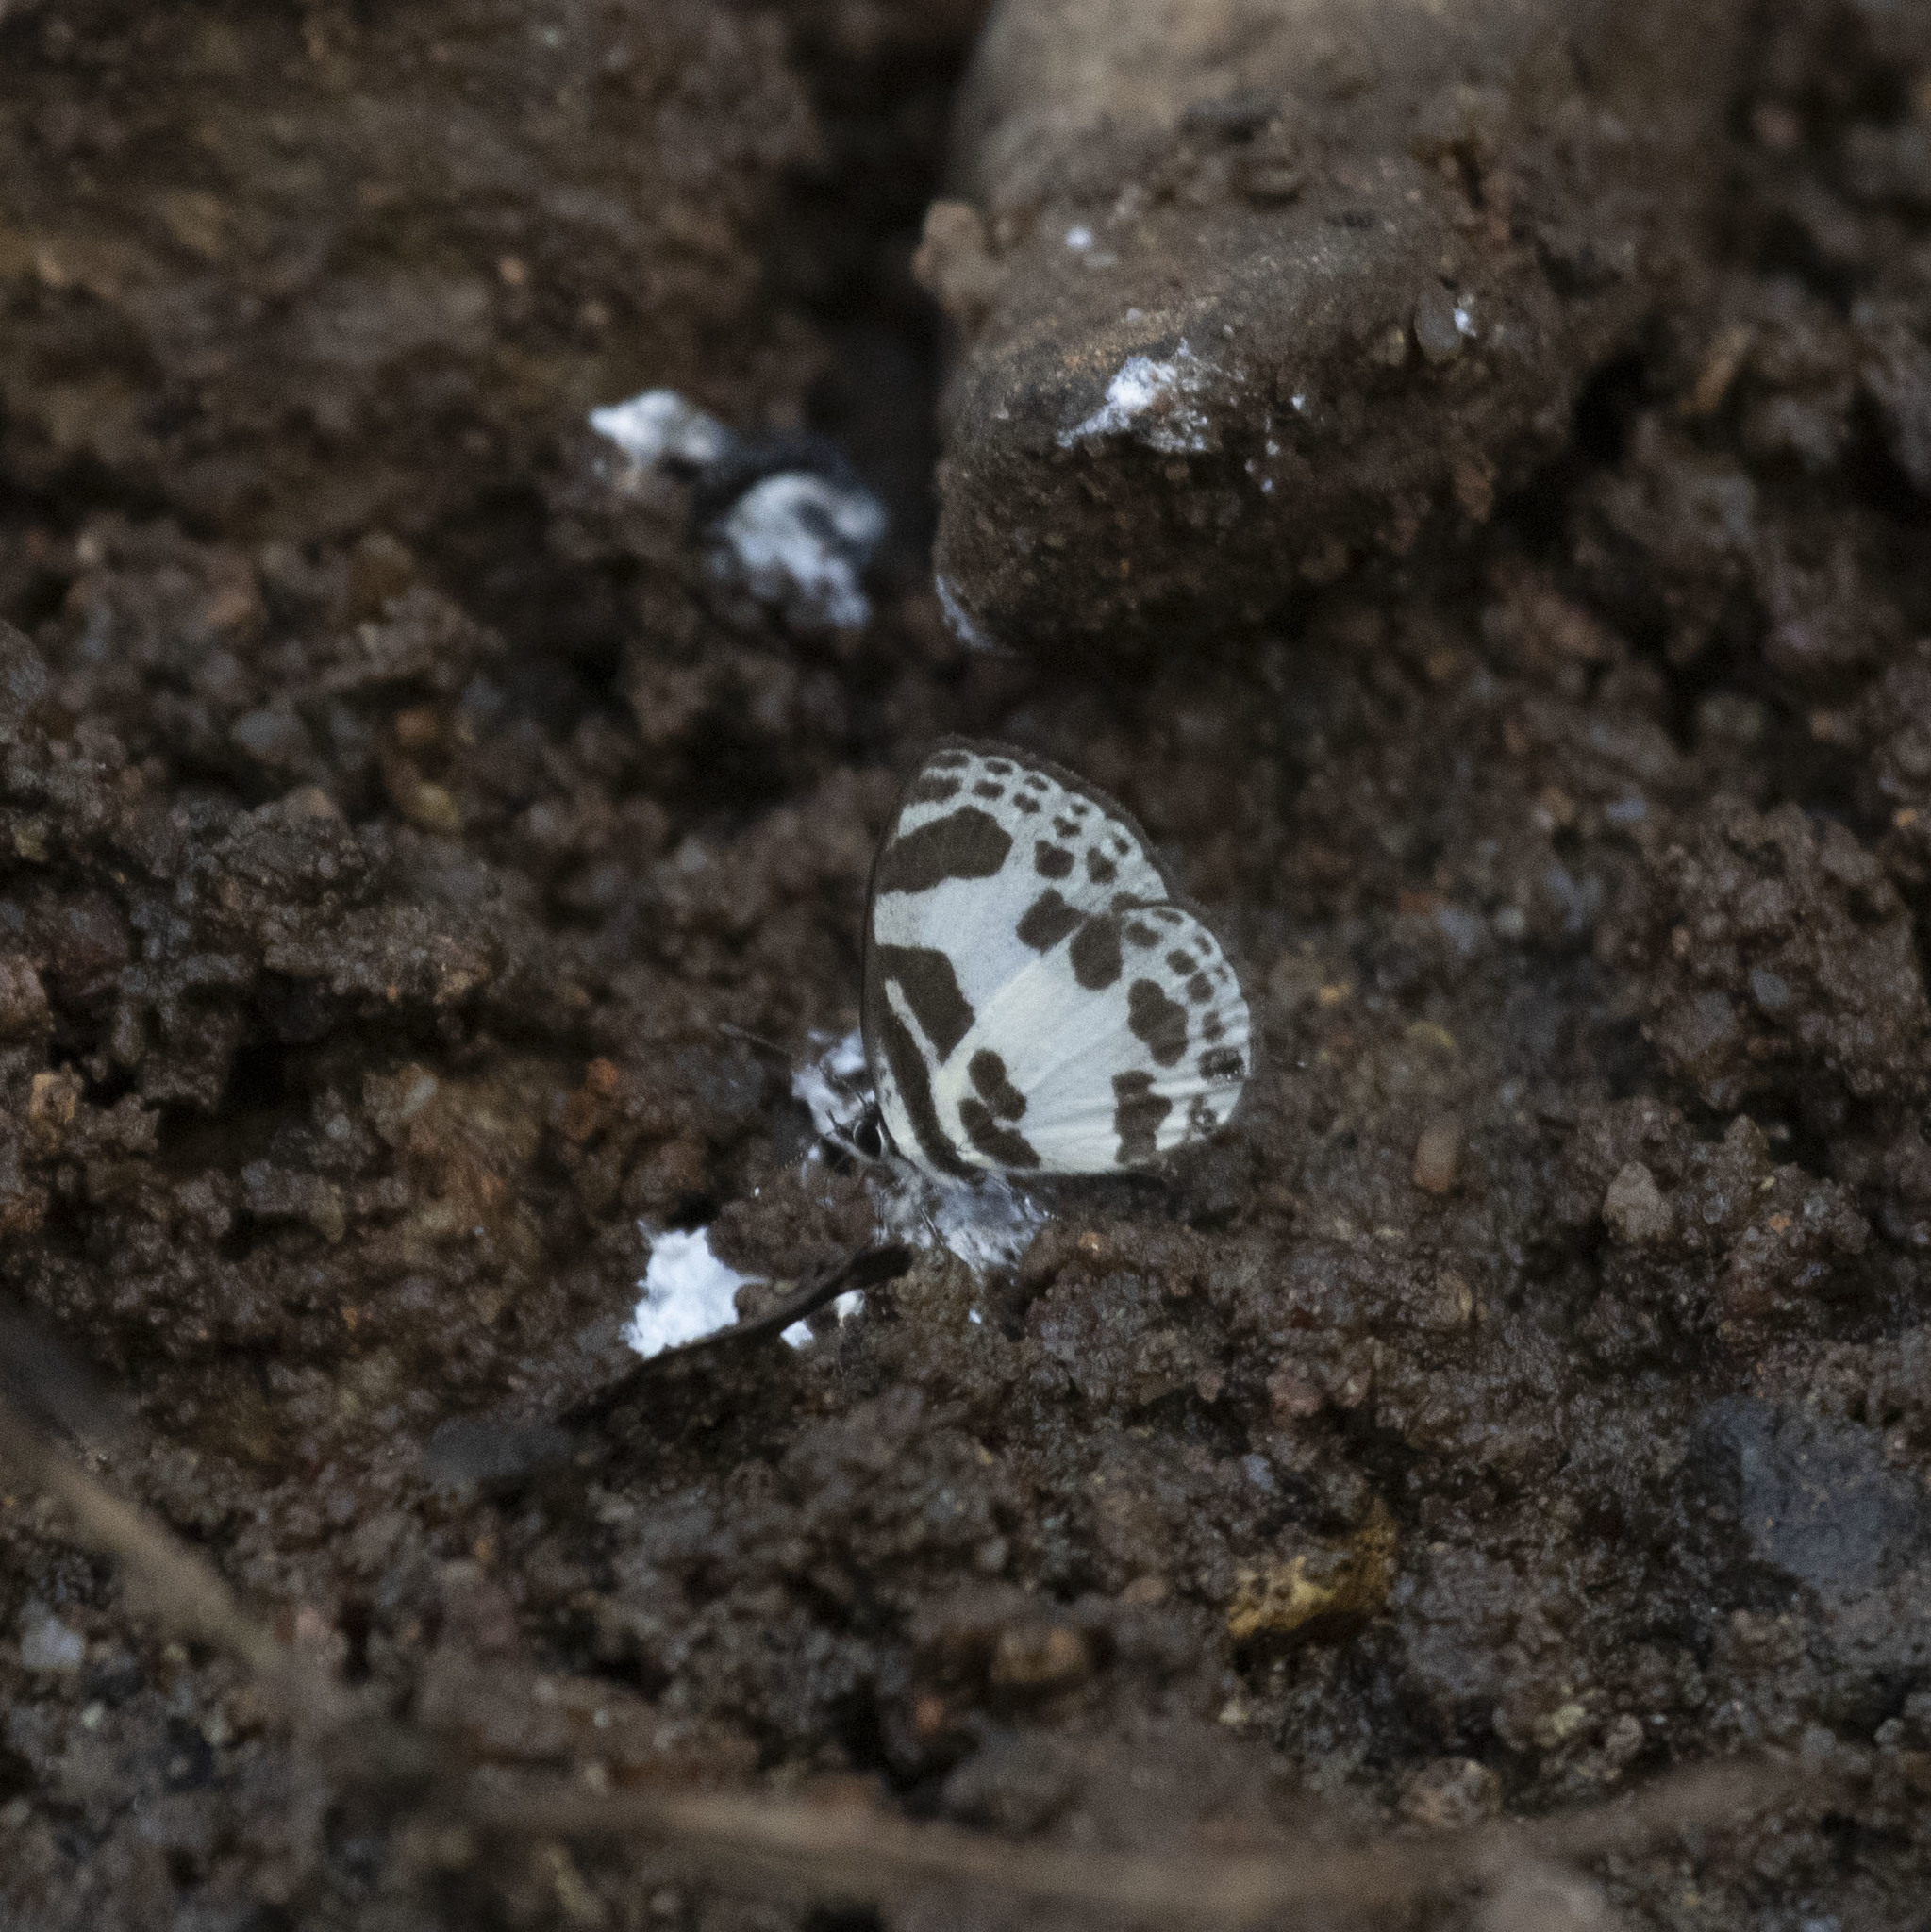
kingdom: Animalia
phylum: Arthropoda
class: Insecta
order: Lepidoptera
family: Lycaenidae
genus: Discolampa
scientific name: Discolampa ethion
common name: Banded blue pierrot
